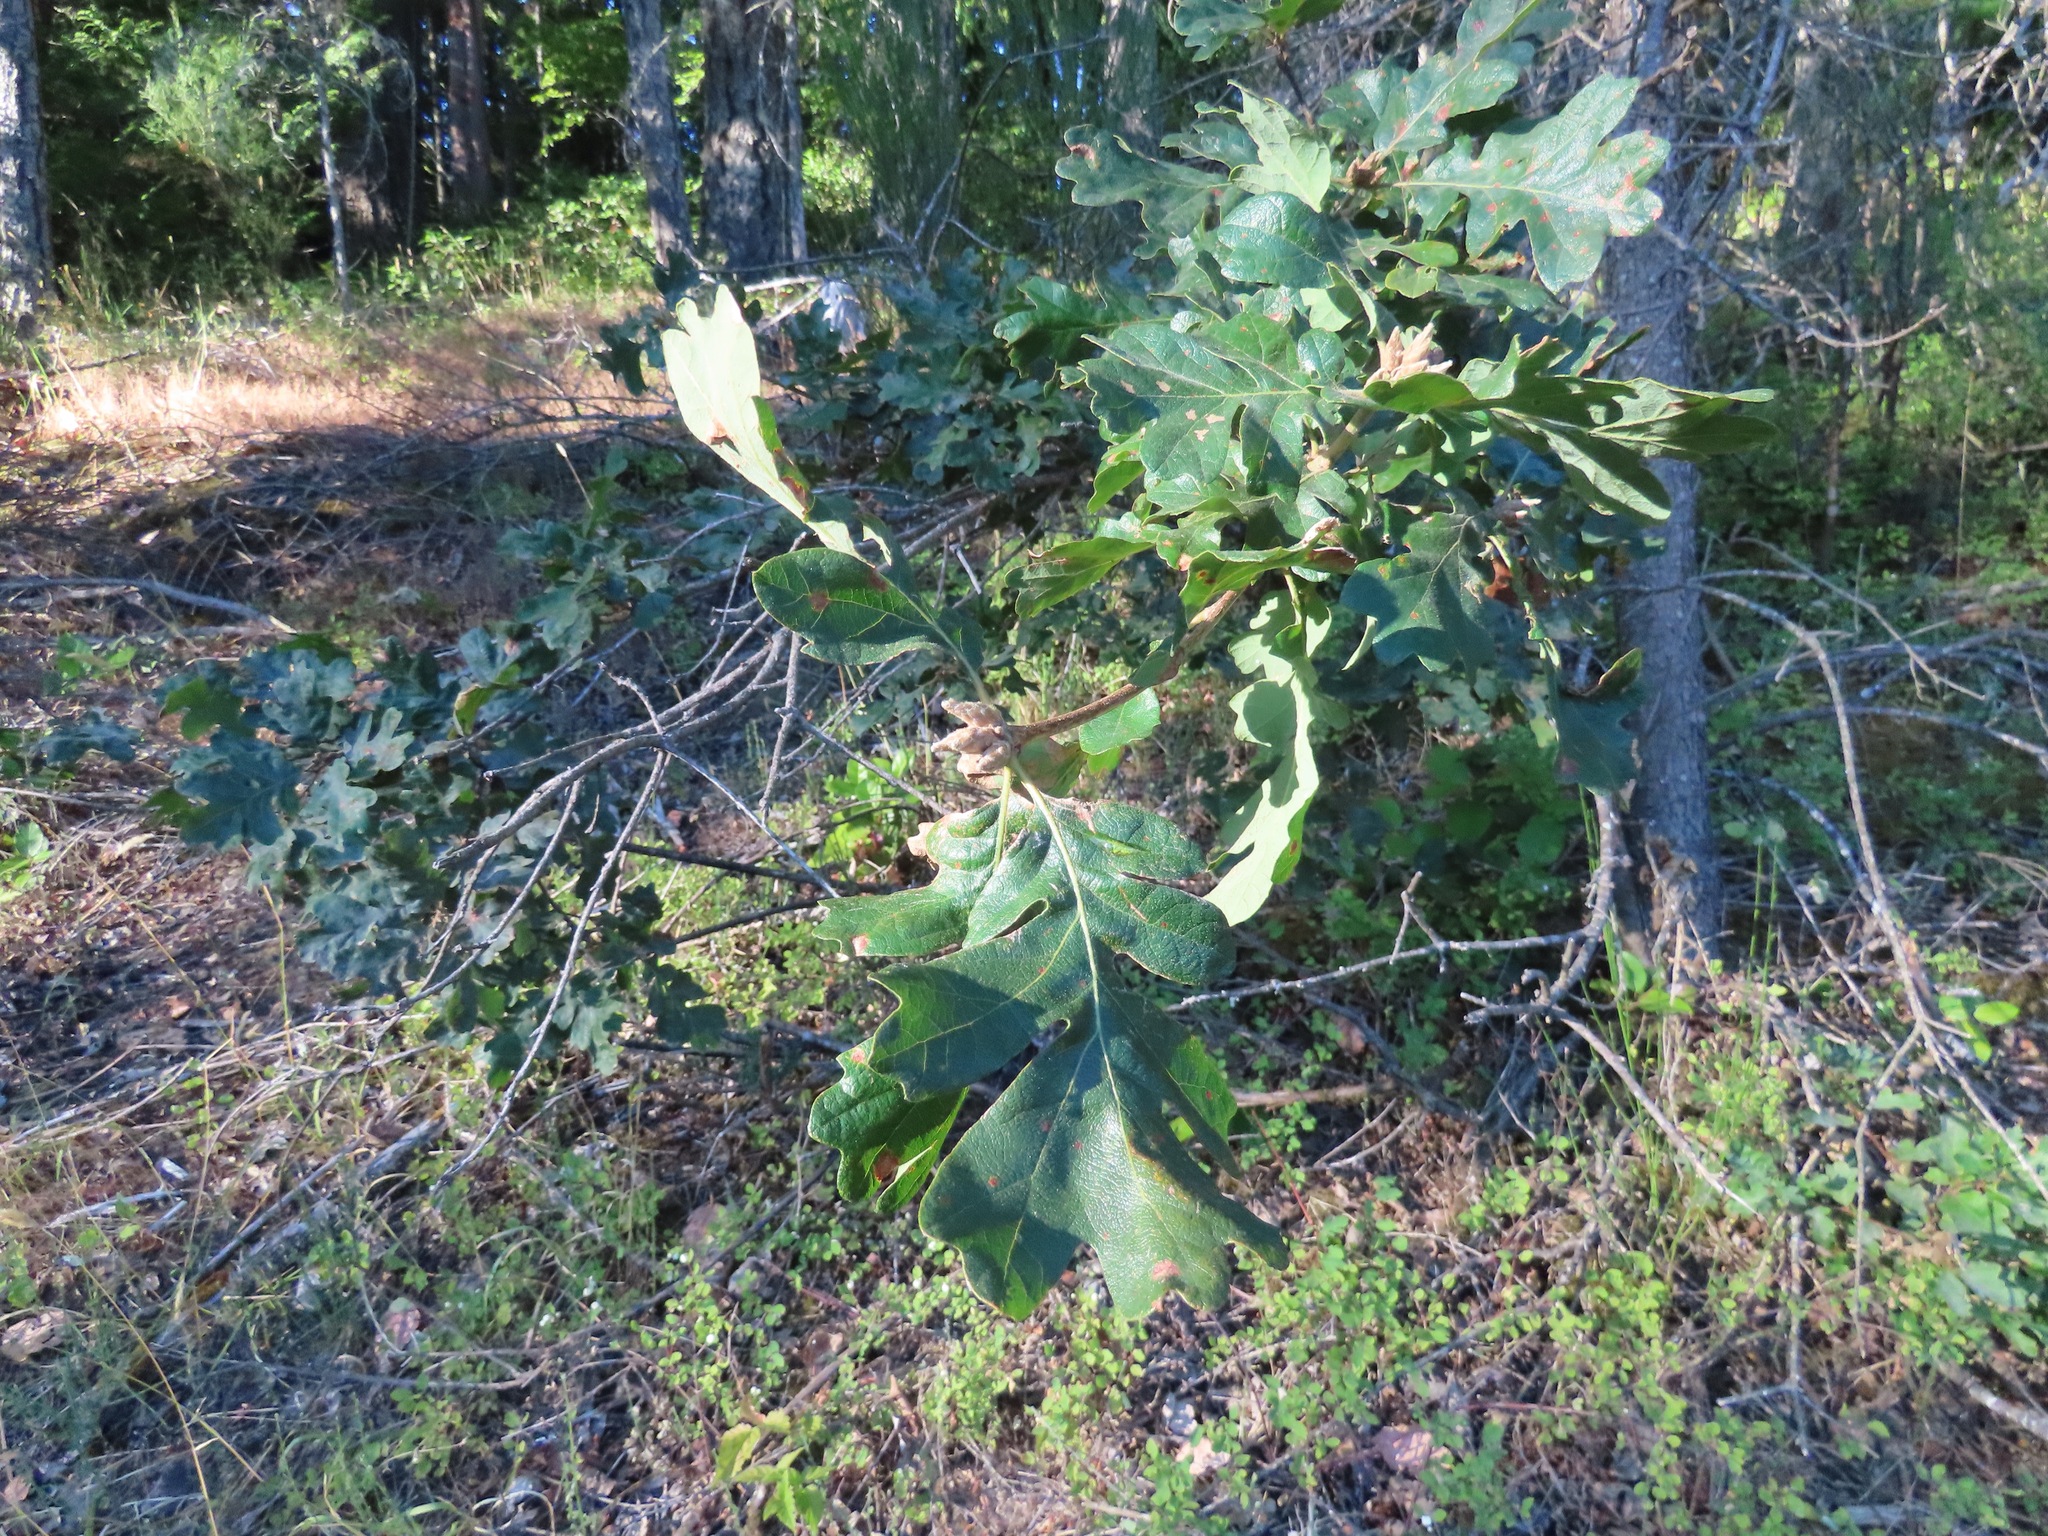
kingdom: Plantae
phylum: Tracheophyta
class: Magnoliopsida
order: Fagales
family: Fagaceae
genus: Quercus
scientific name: Quercus garryana
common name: Garry oak
